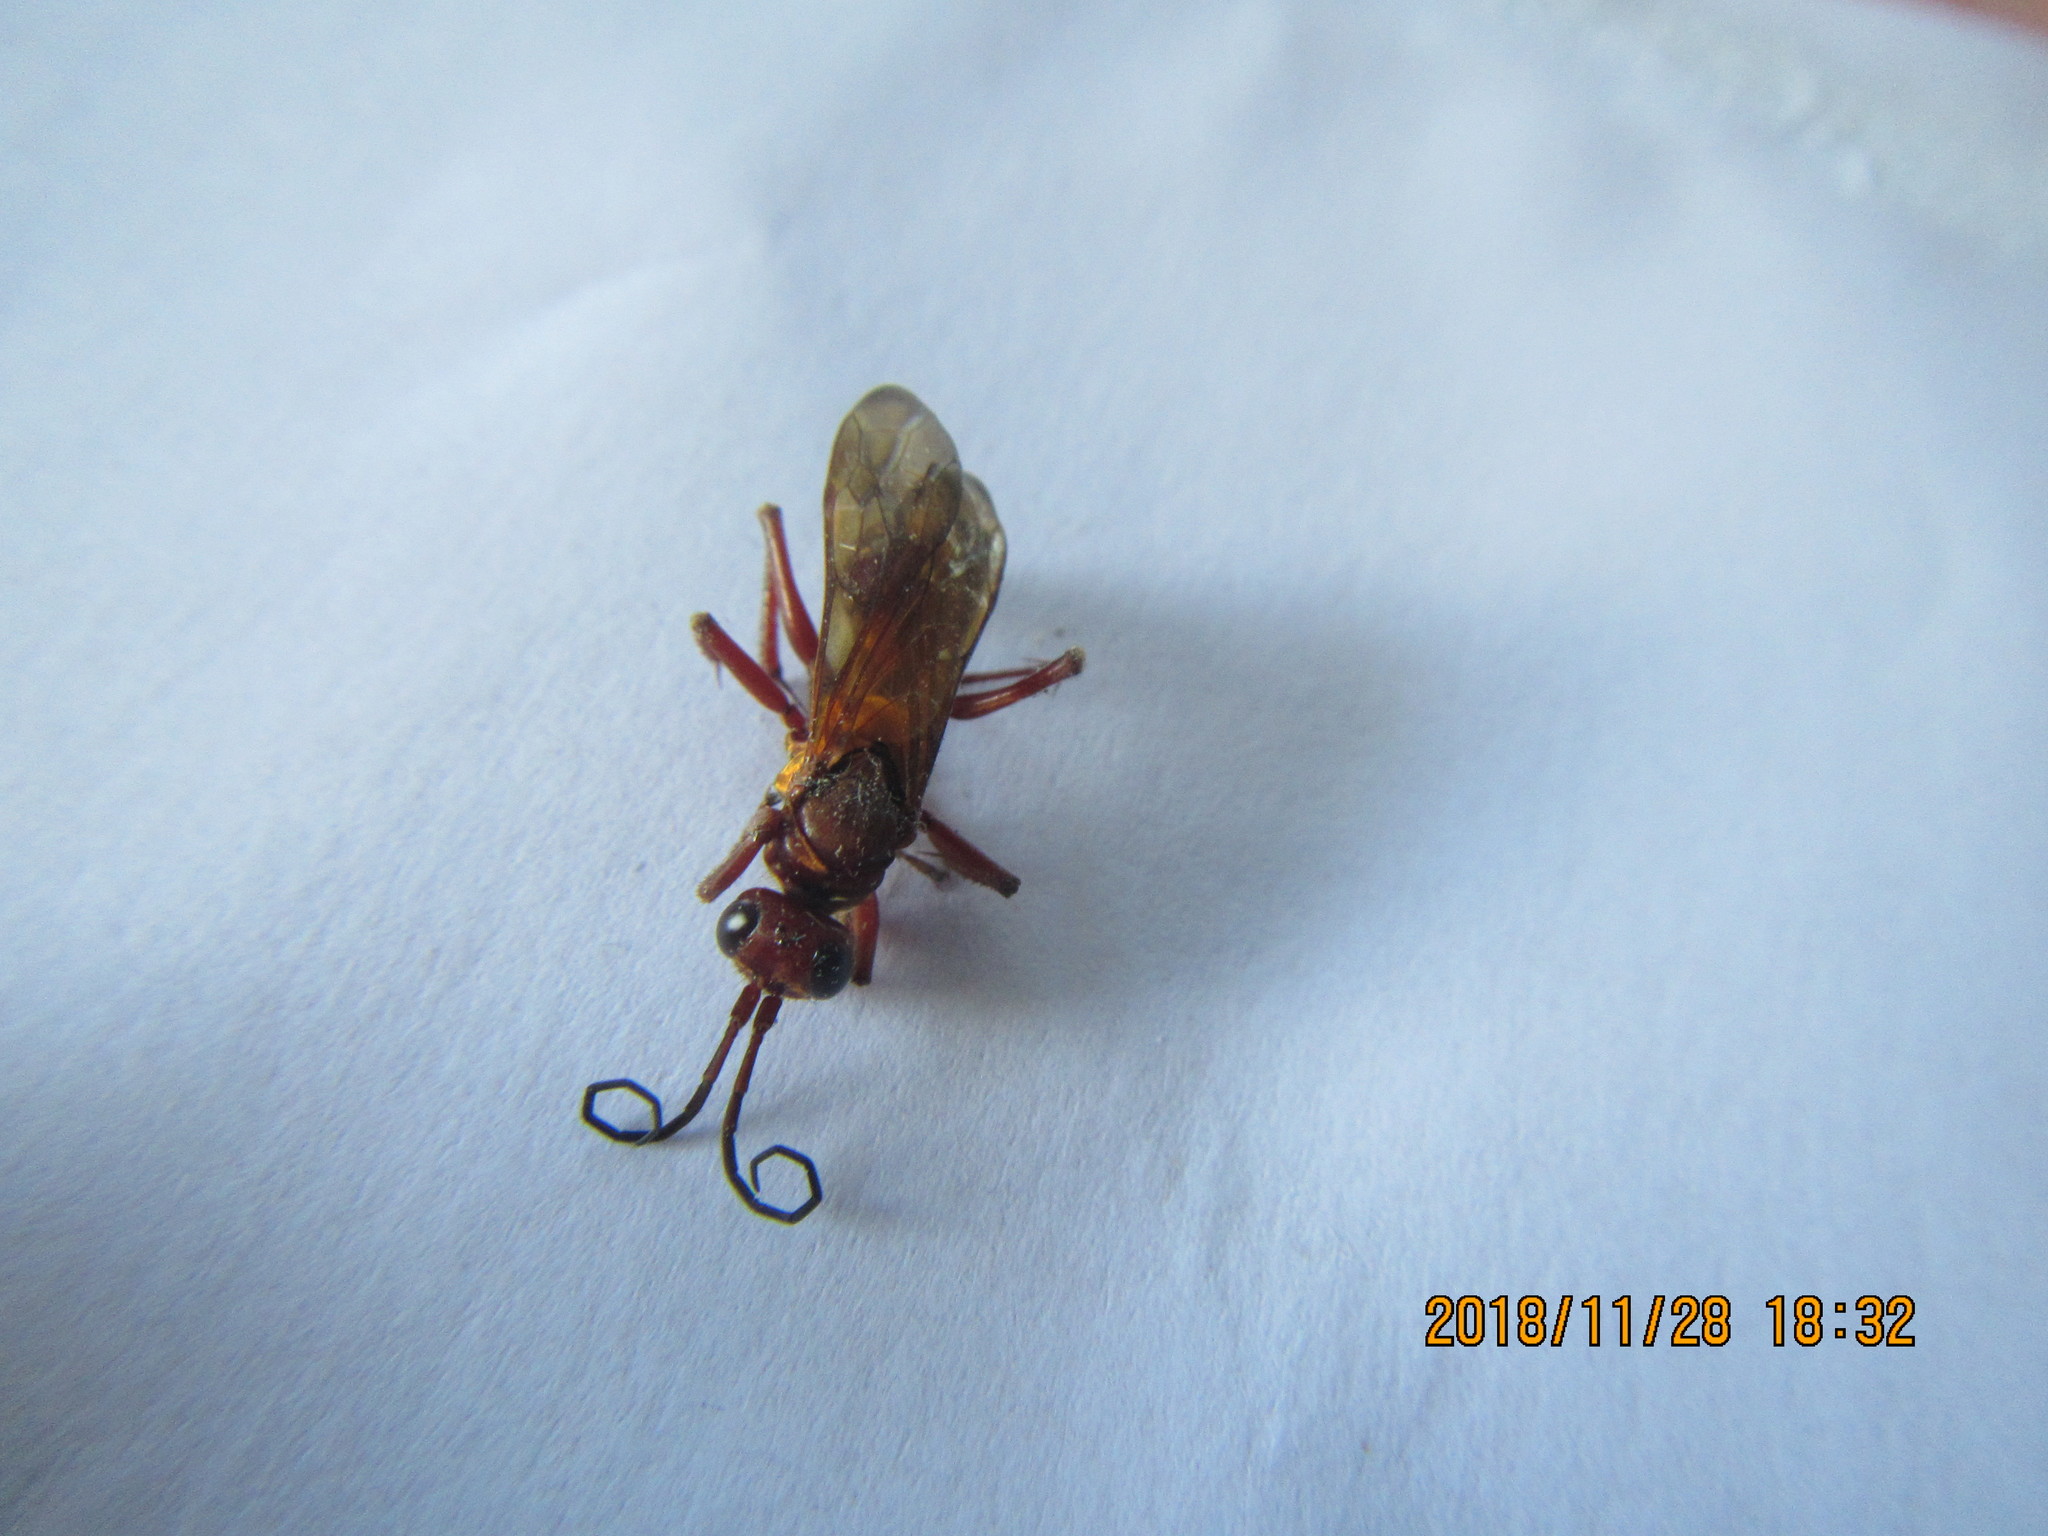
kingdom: Animalia
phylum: Arthropoda
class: Insecta
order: Hymenoptera
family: Pompilidae
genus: Sphictostethus
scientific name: Sphictostethus nitidus
